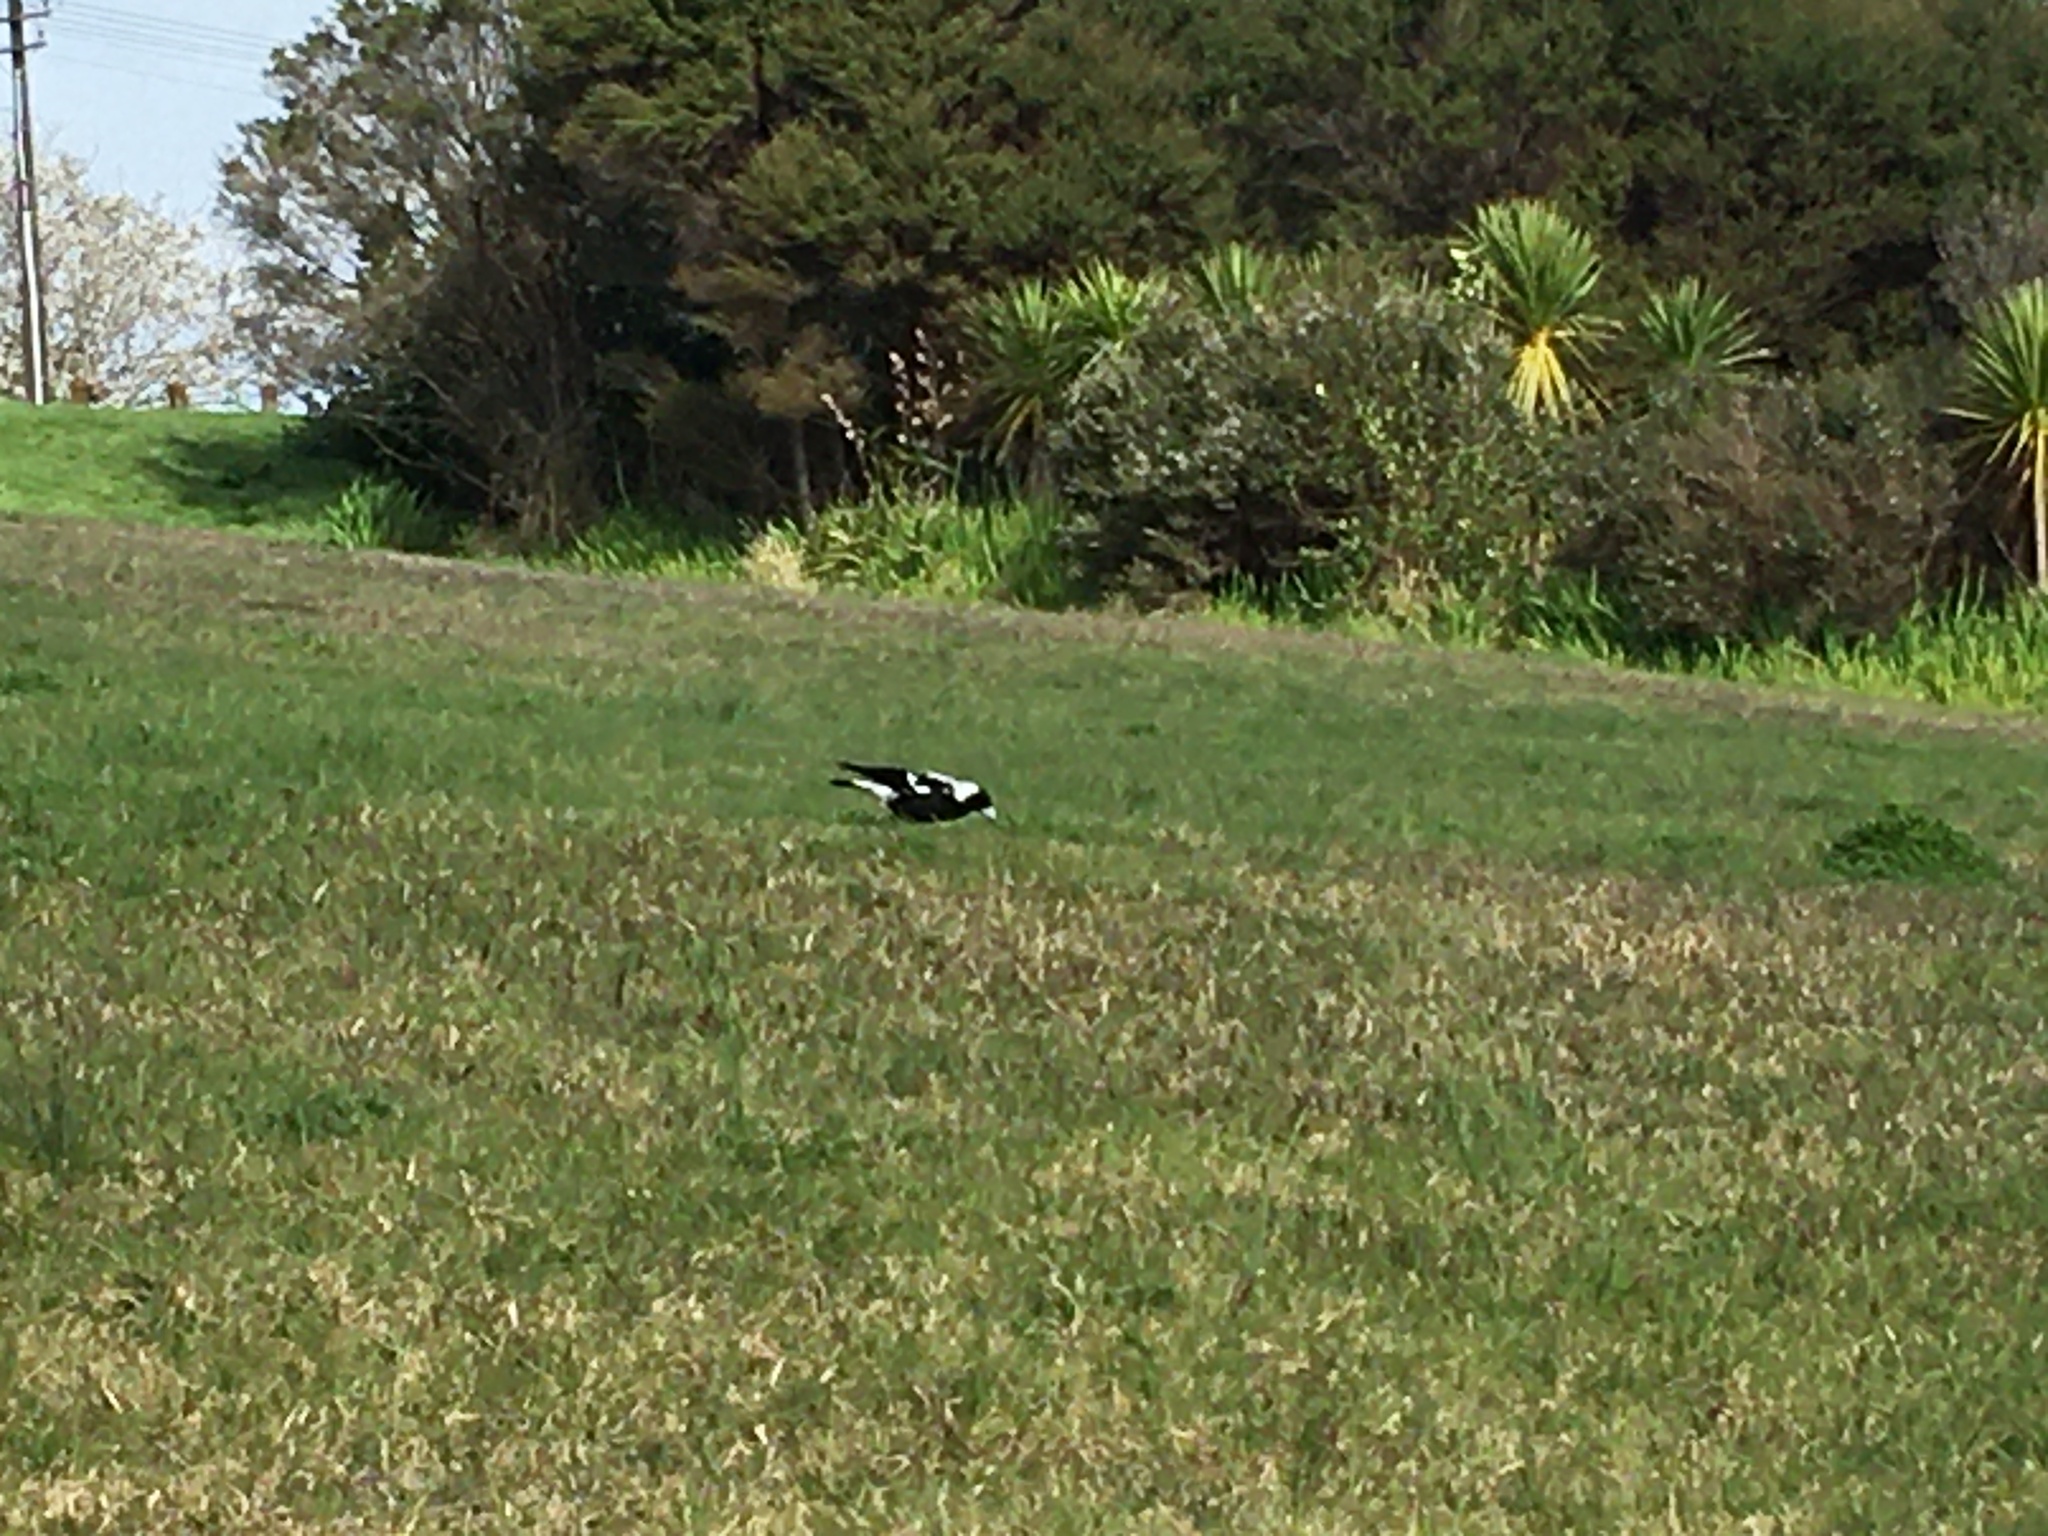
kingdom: Animalia
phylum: Chordata
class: Aves
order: Passeriformes
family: Cracticidae
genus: Gymnorhina
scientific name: Gymnorhina tibicen
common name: Australian magpie
